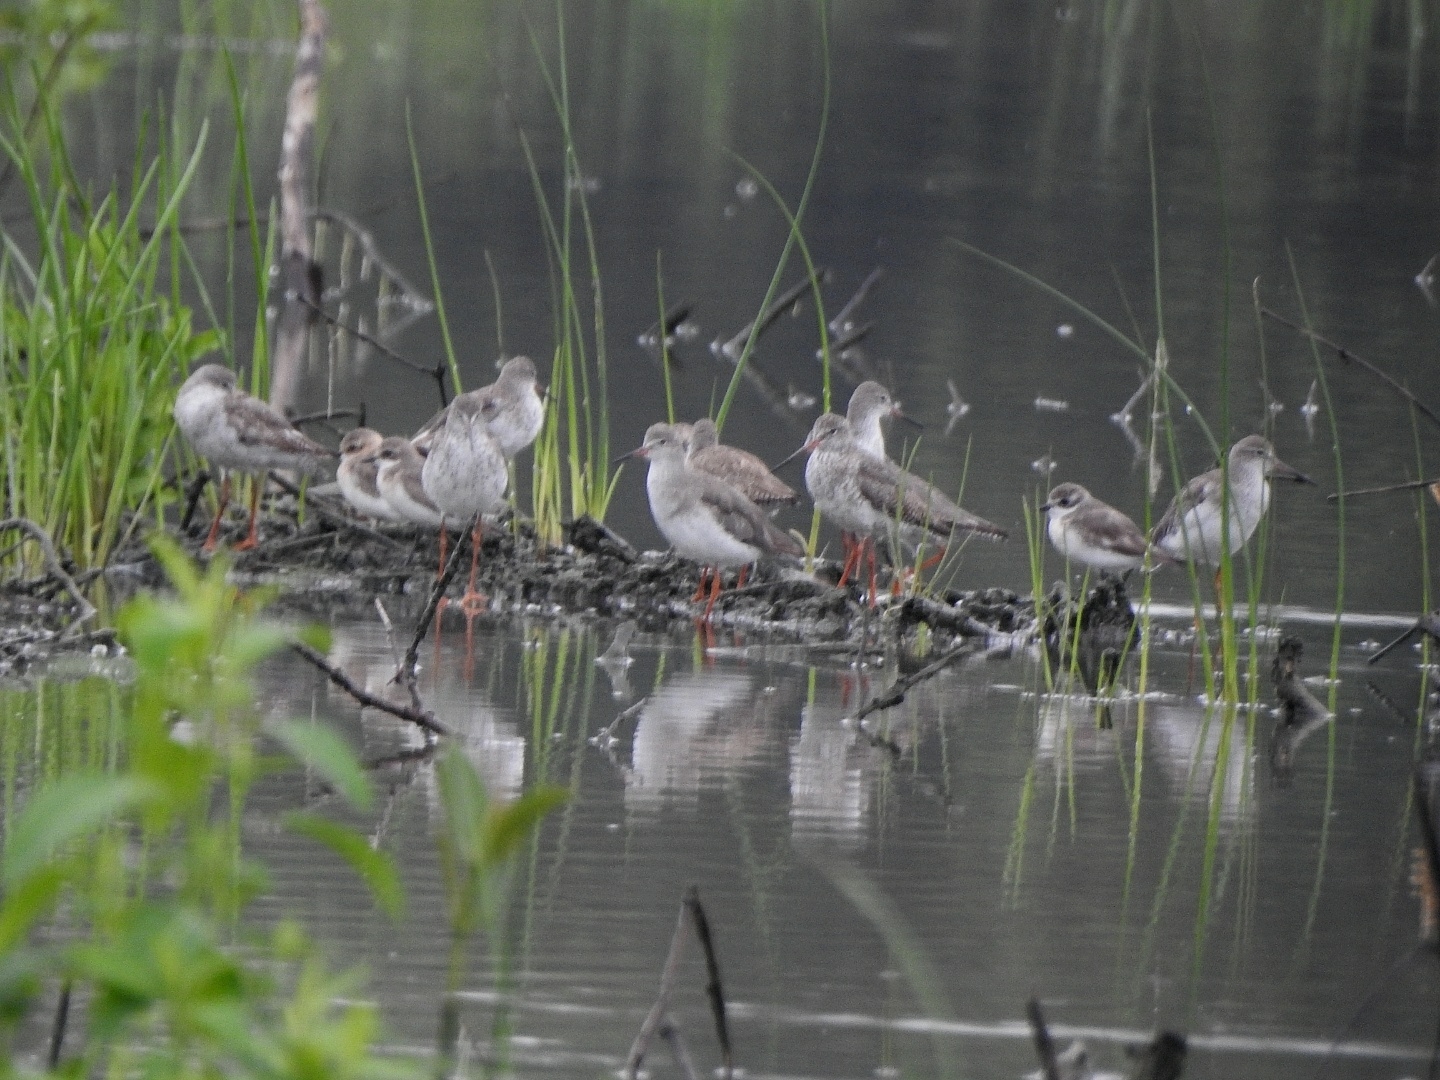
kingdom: Animalia
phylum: Chordata
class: Aves
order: Charadriiformes
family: Scolopacidae
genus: Tringa
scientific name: Tringa totanus
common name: Common redshank
